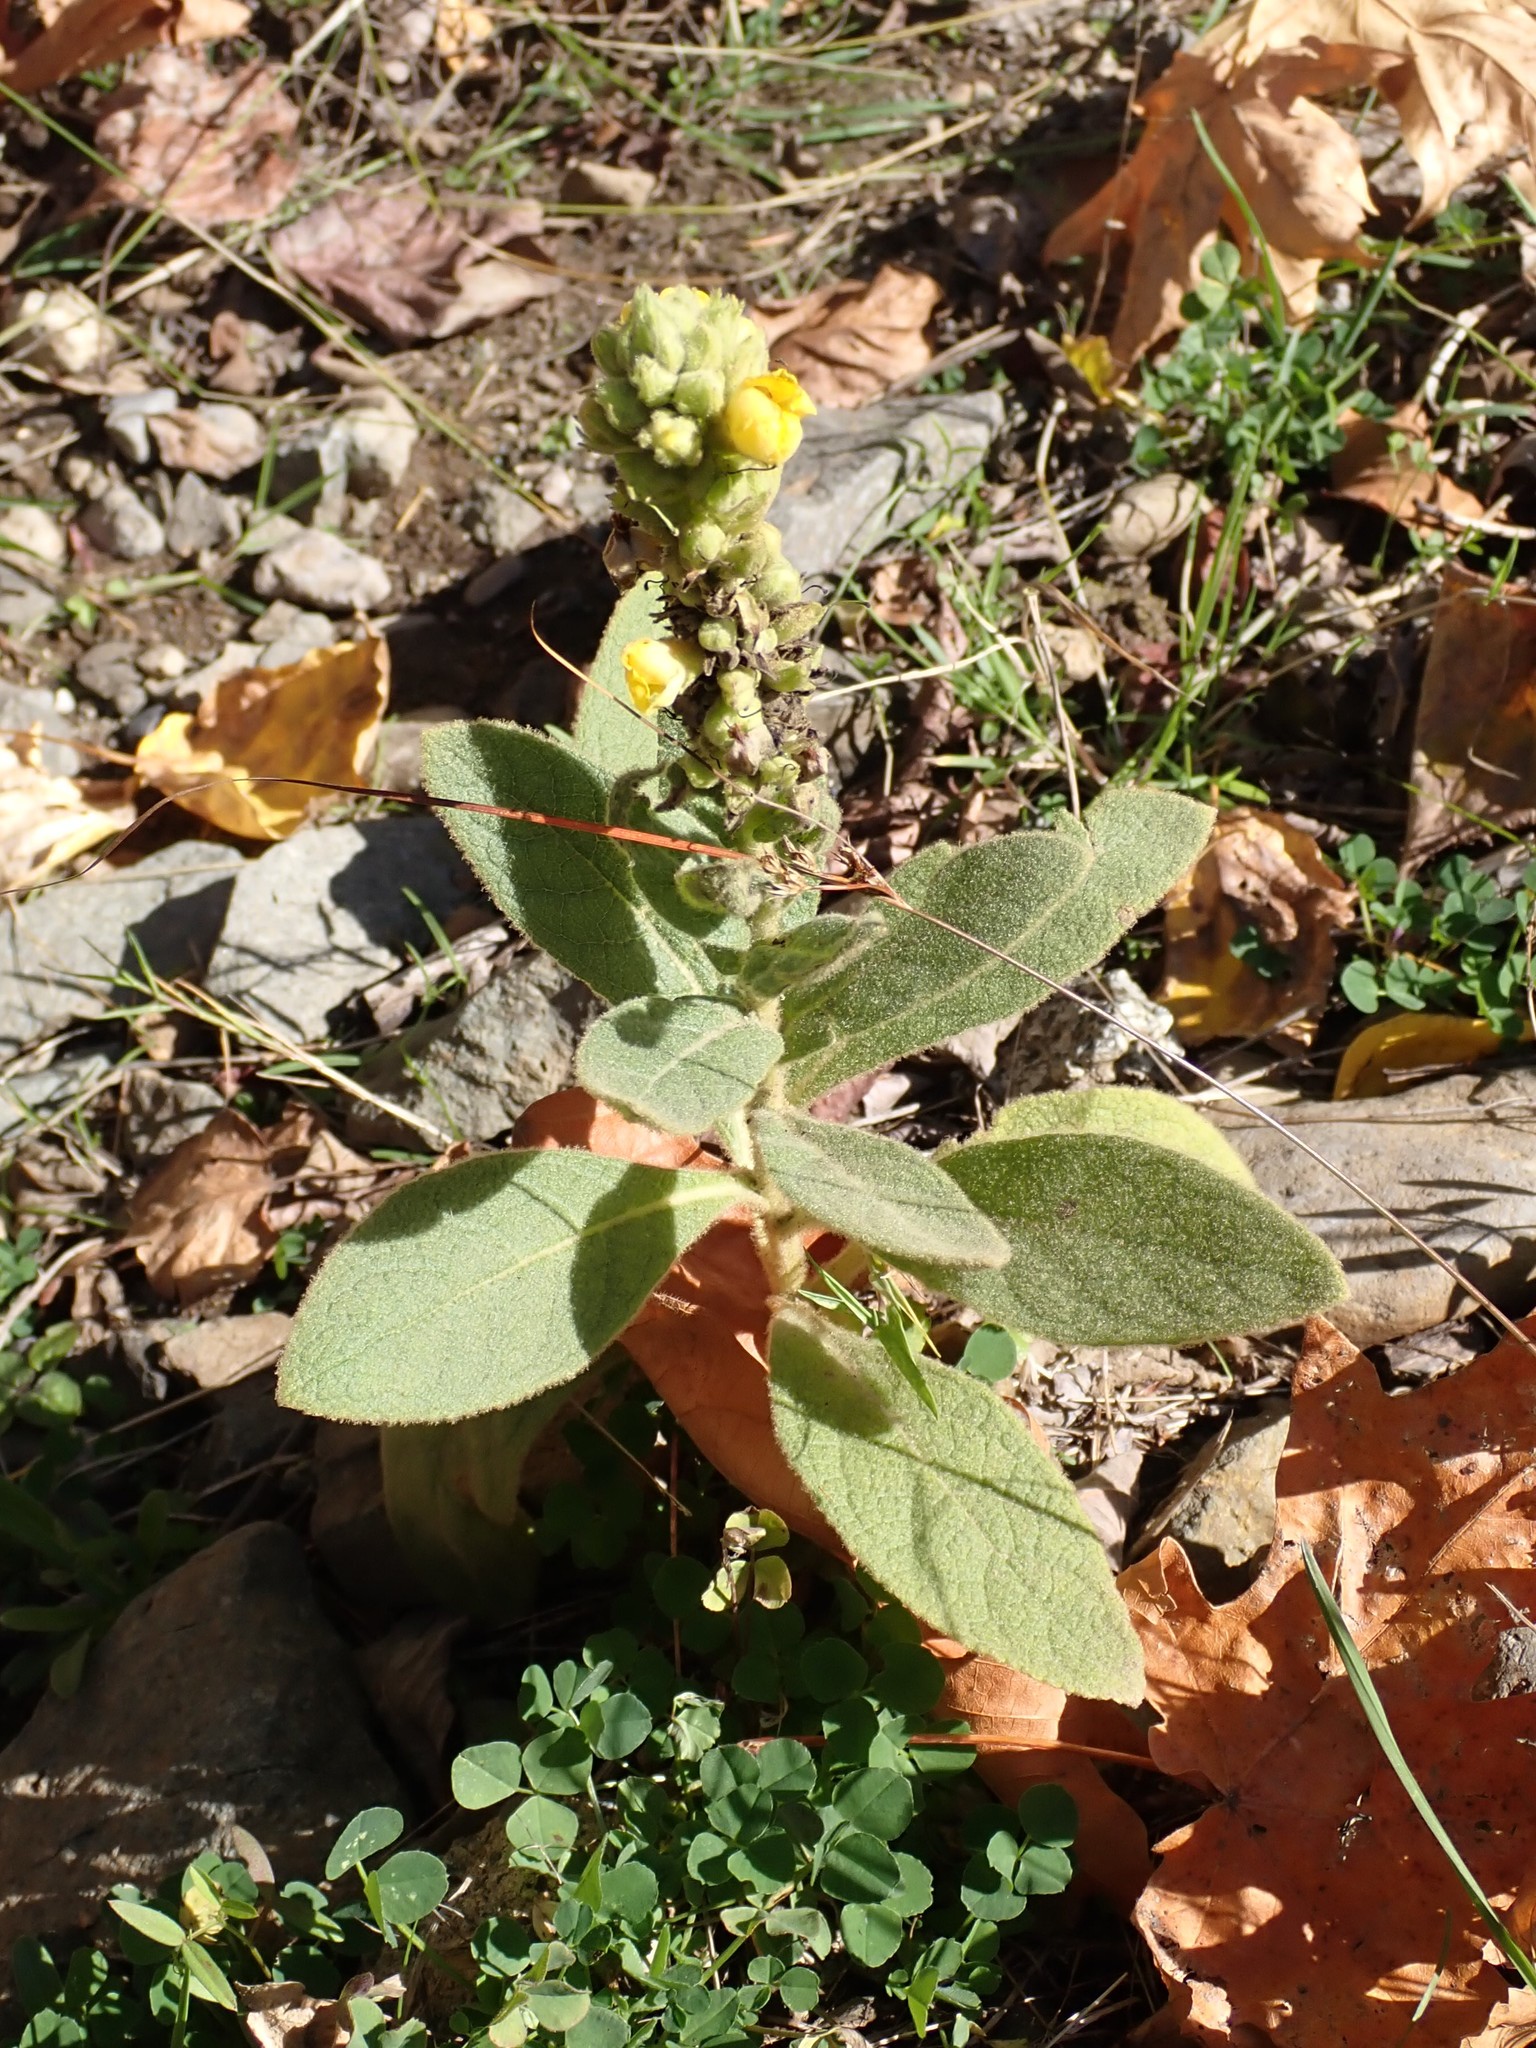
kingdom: Plantae
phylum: Tracheophyta
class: Magnoliopsida
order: Lamiales
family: Scrophulariaceae
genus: Verbascum
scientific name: Verbascum thapsus
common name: Common mullein
